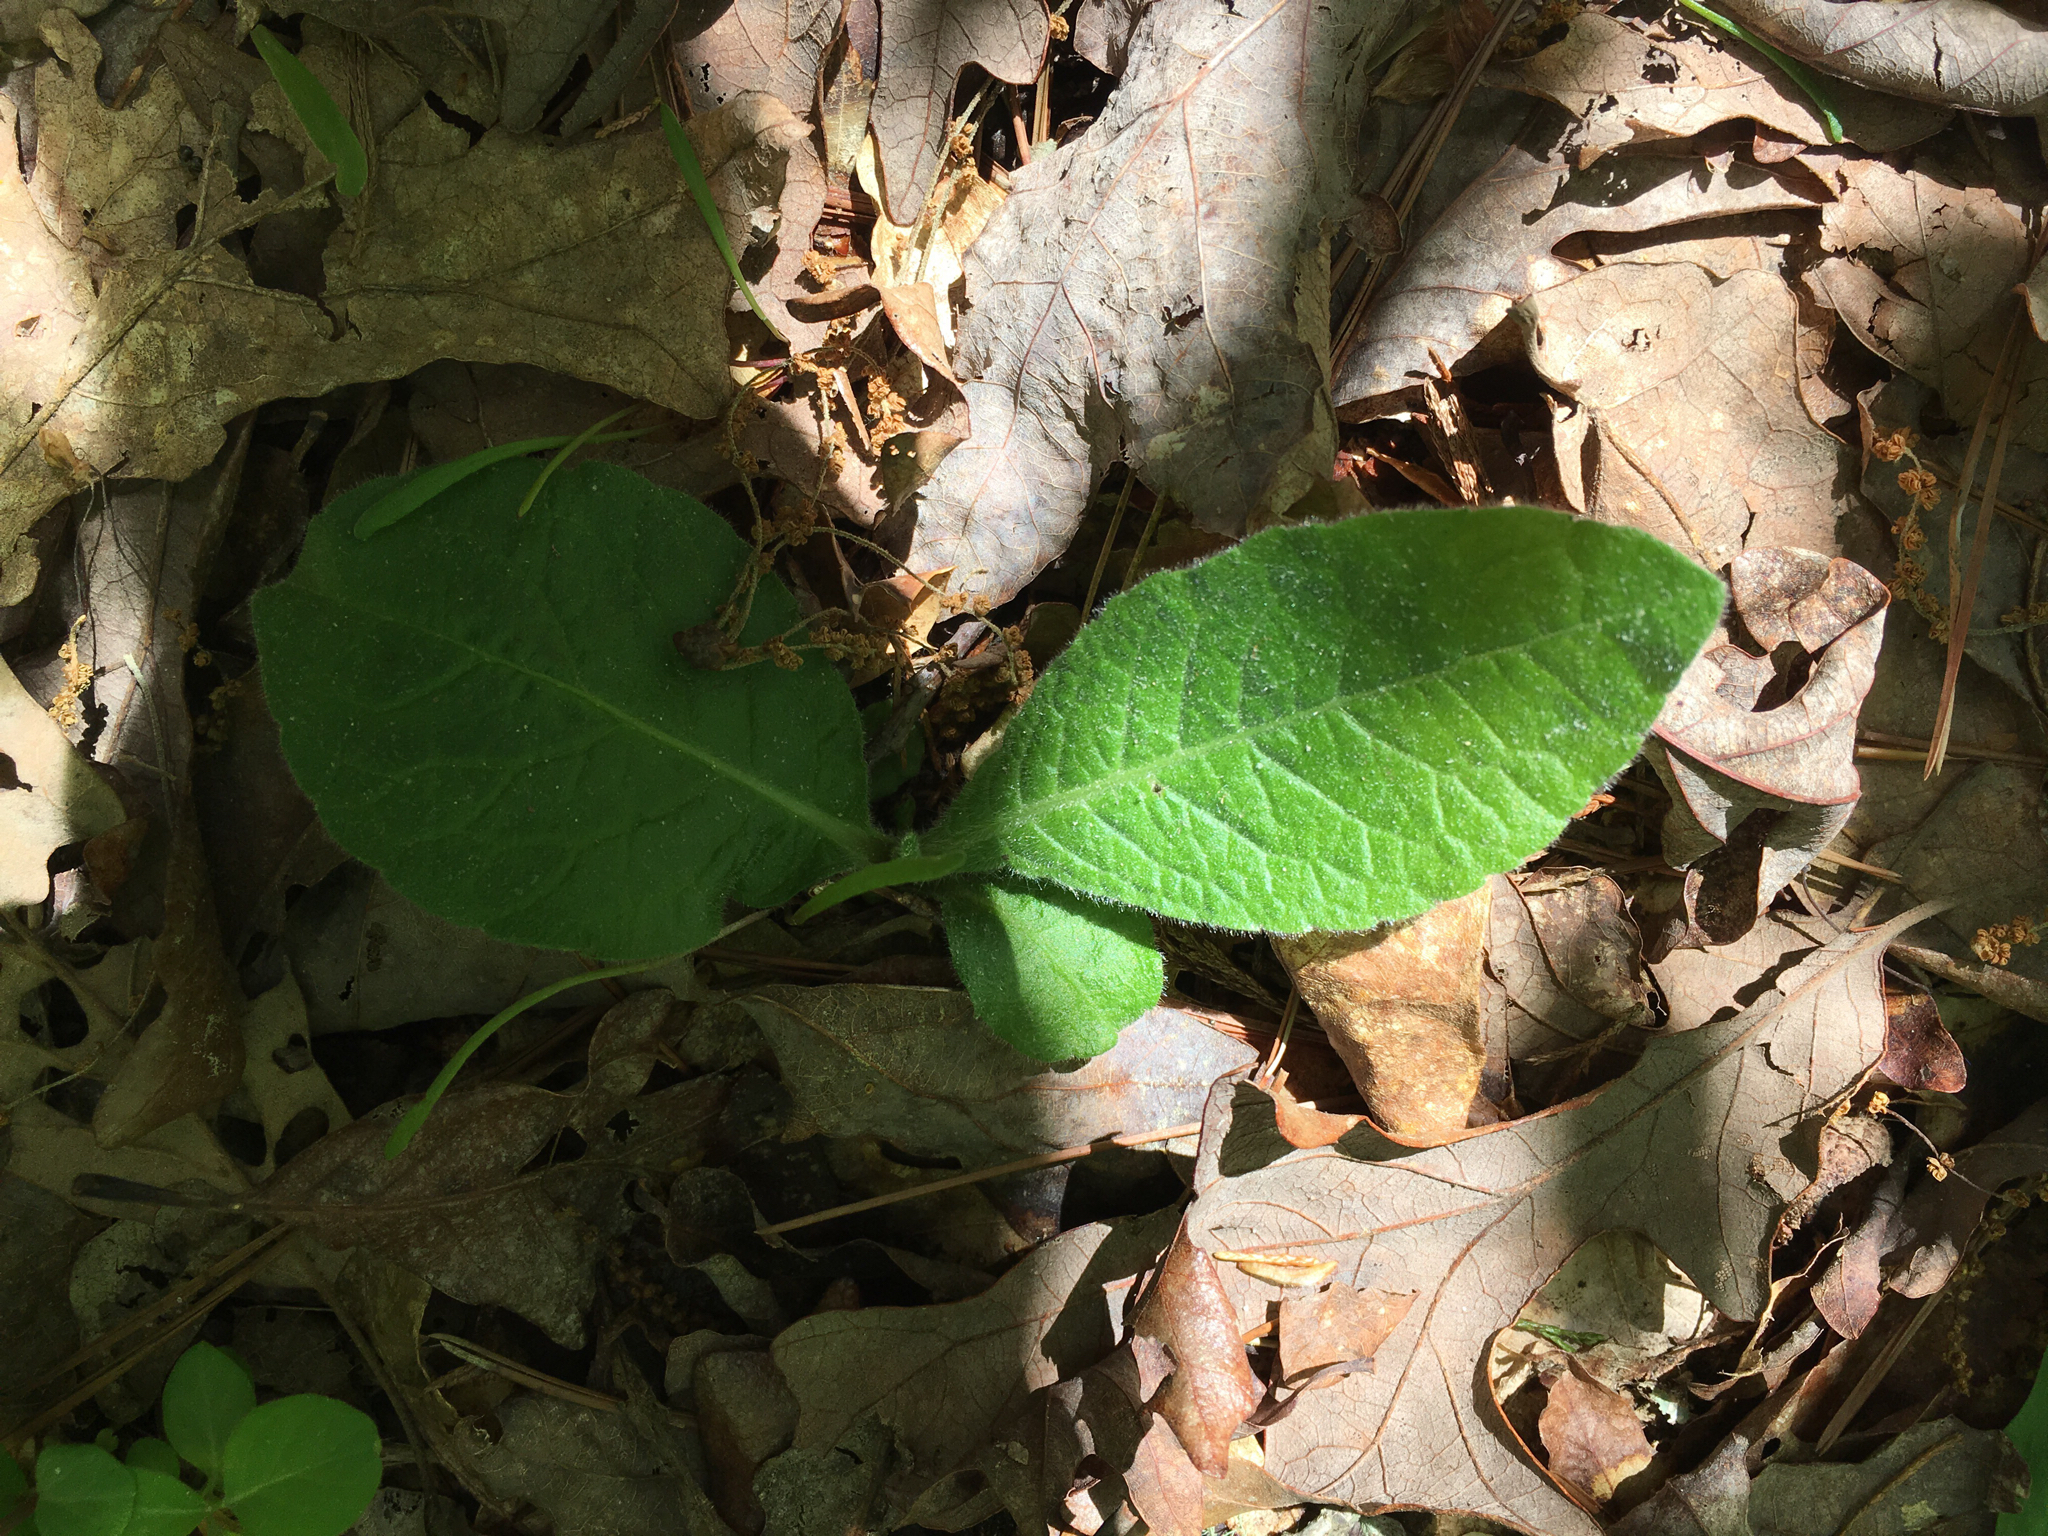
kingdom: Plantae
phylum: Tracheophyta
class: Magnoliopsida
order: Asterales
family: Asteraceae
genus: Elephantopus
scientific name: Elephantopus tomentosus
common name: Tobacco-weed
